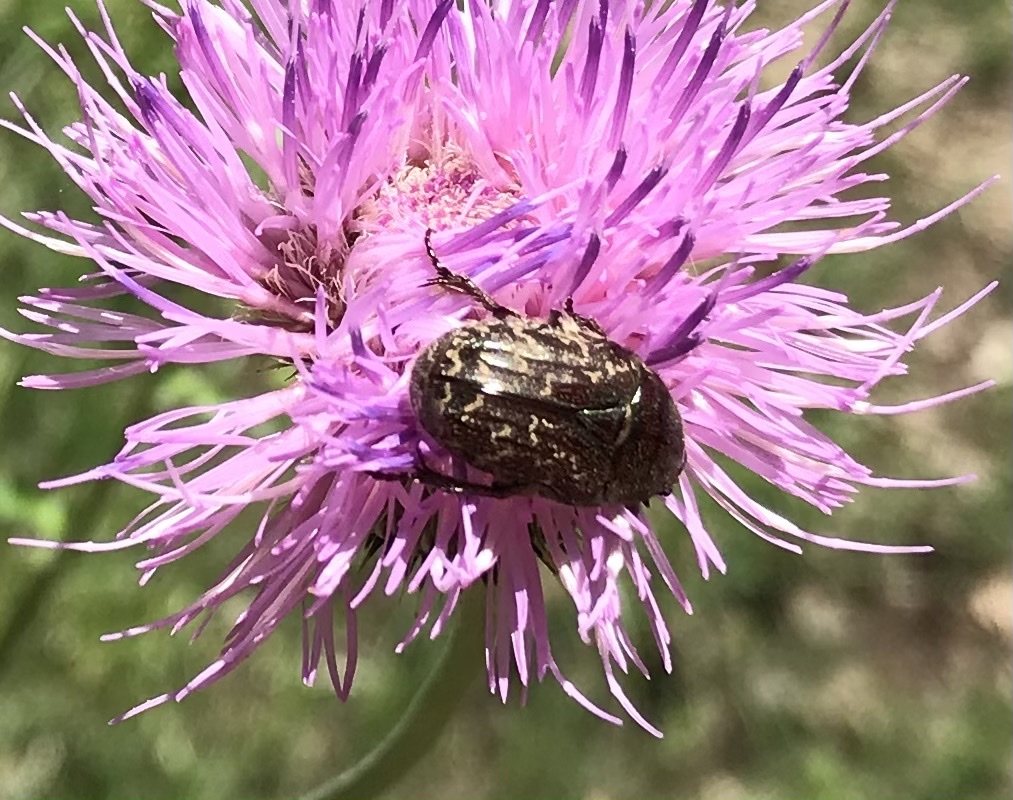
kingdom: Animalia
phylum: Arthropoda
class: Insecta
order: Coleoptera
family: Scarabaeidae
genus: Euphoria
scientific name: Euphoria sepulcralis
